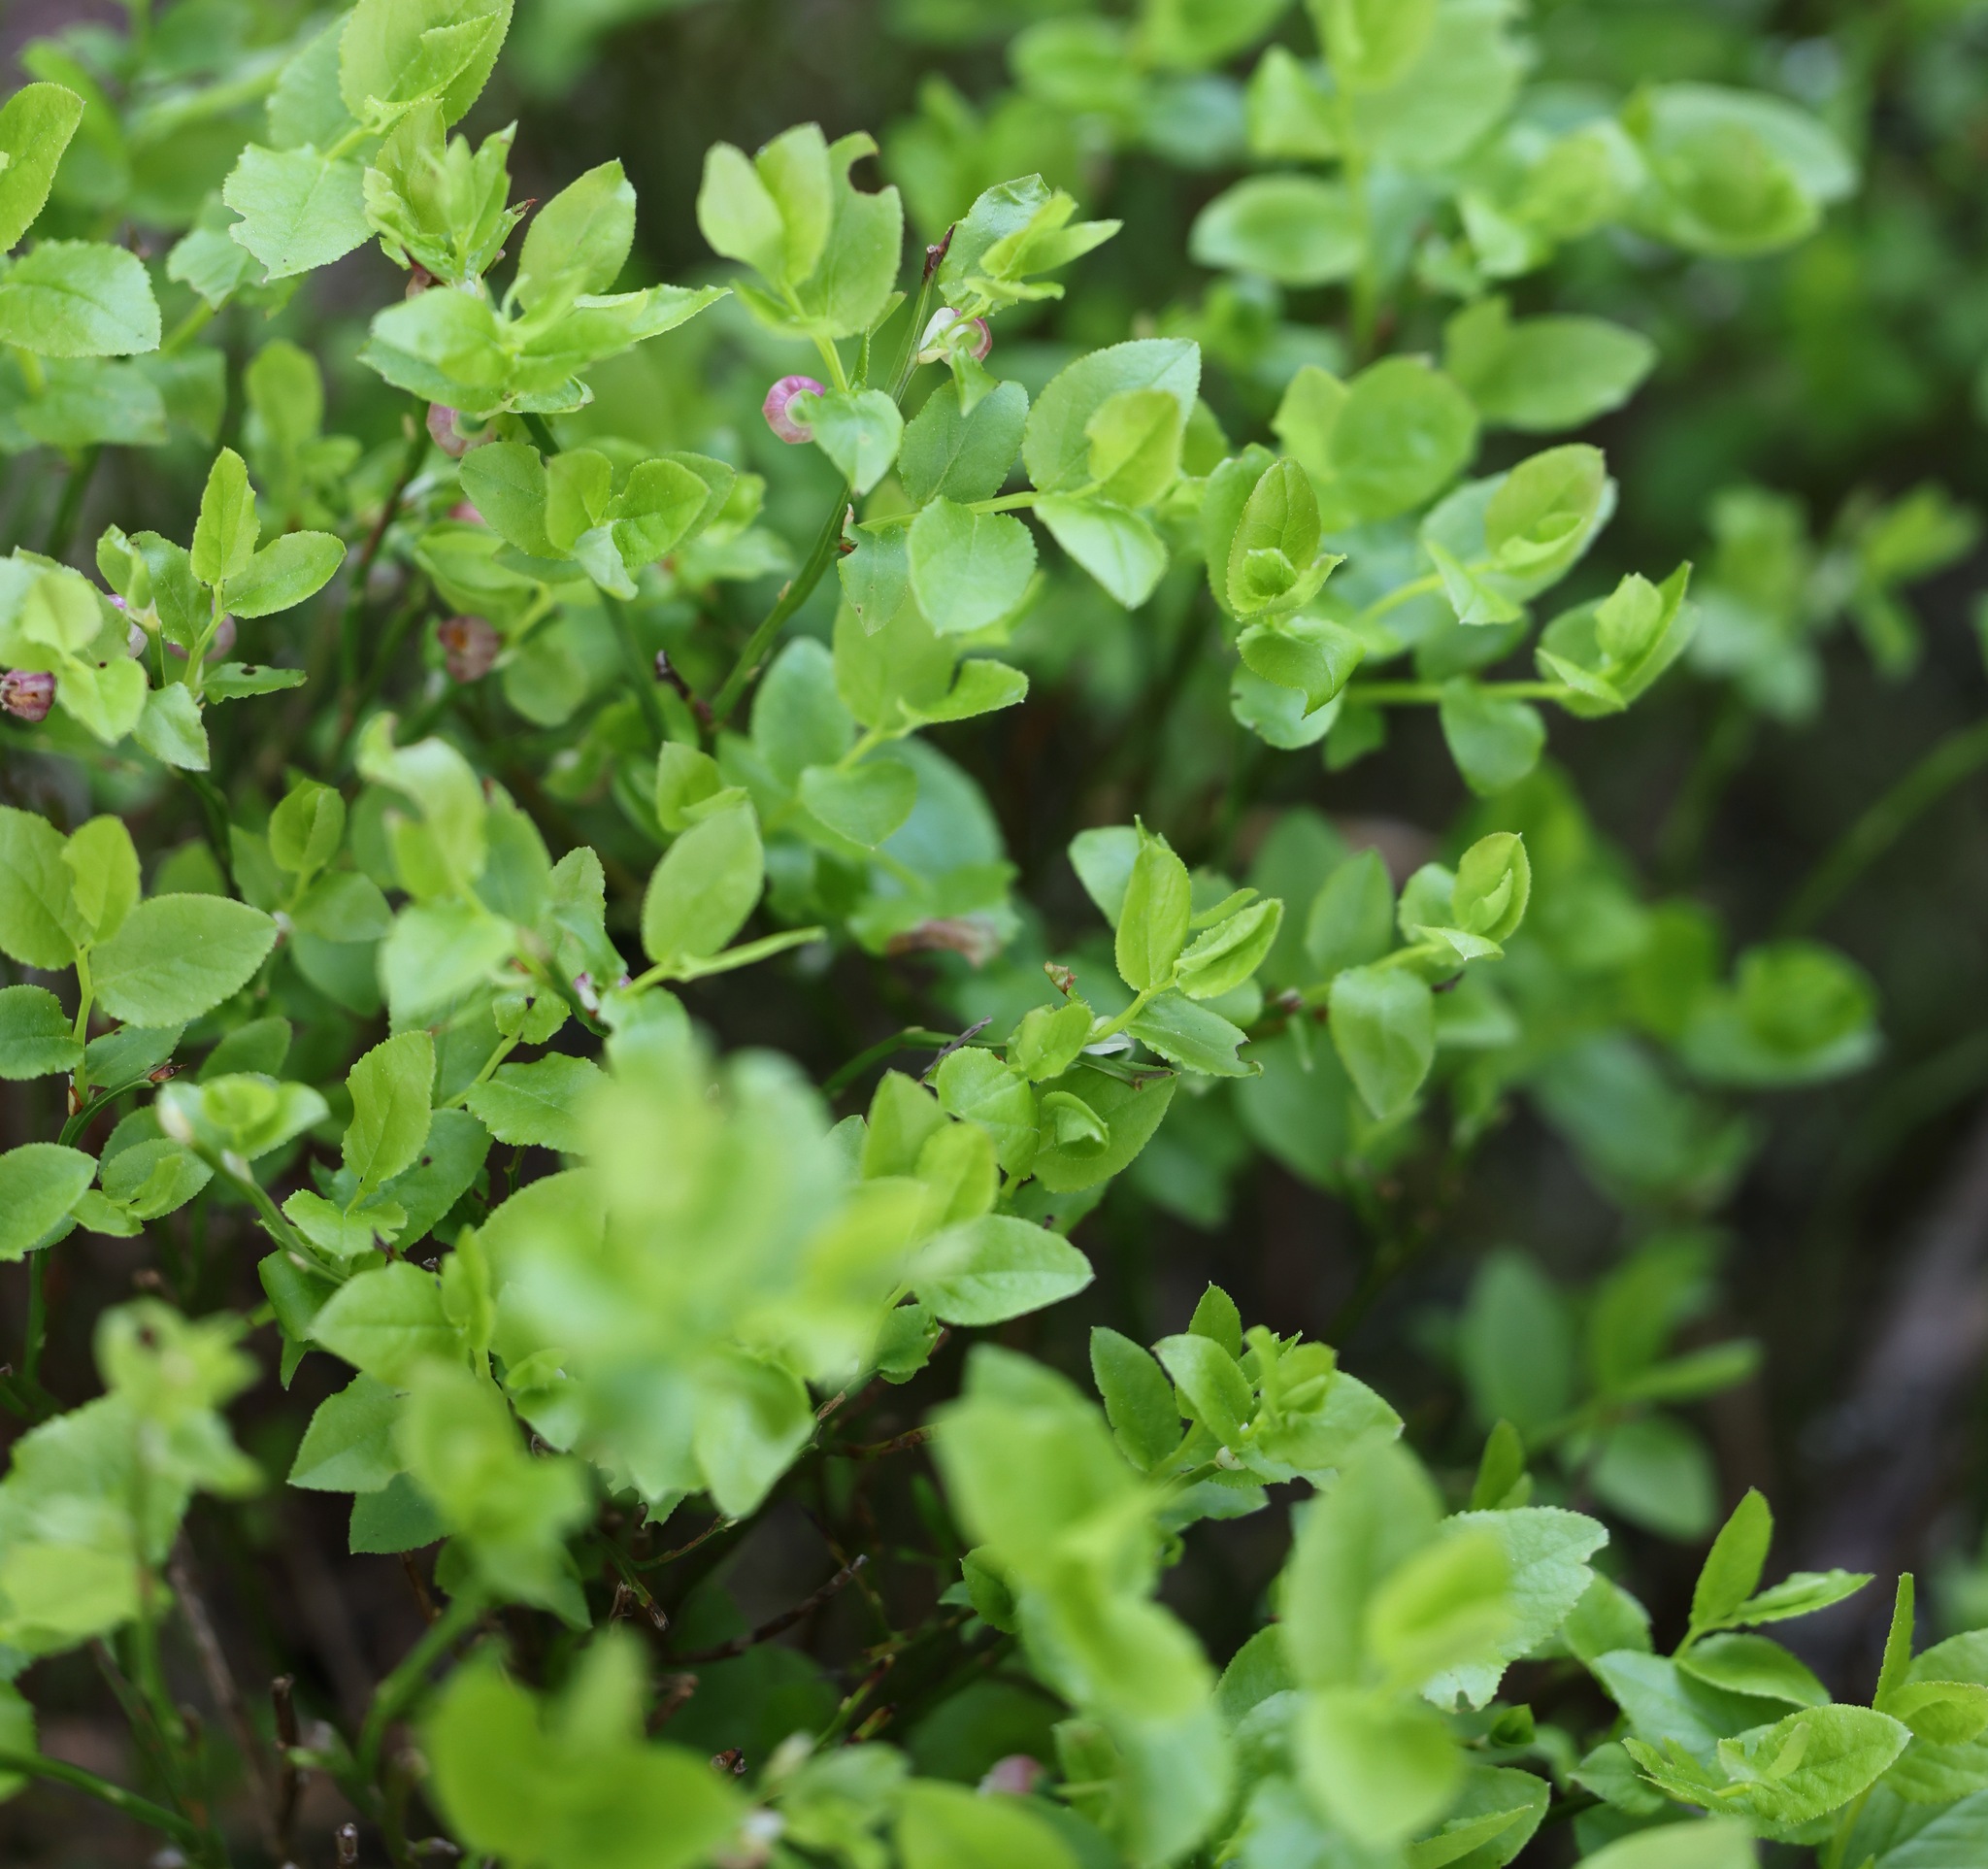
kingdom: Plantae
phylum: Tracheophyta
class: Magnoliopsida
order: Ericales
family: Ericaceae
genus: Vaccinium
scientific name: Vaccinium myrtillus
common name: Bilberry
